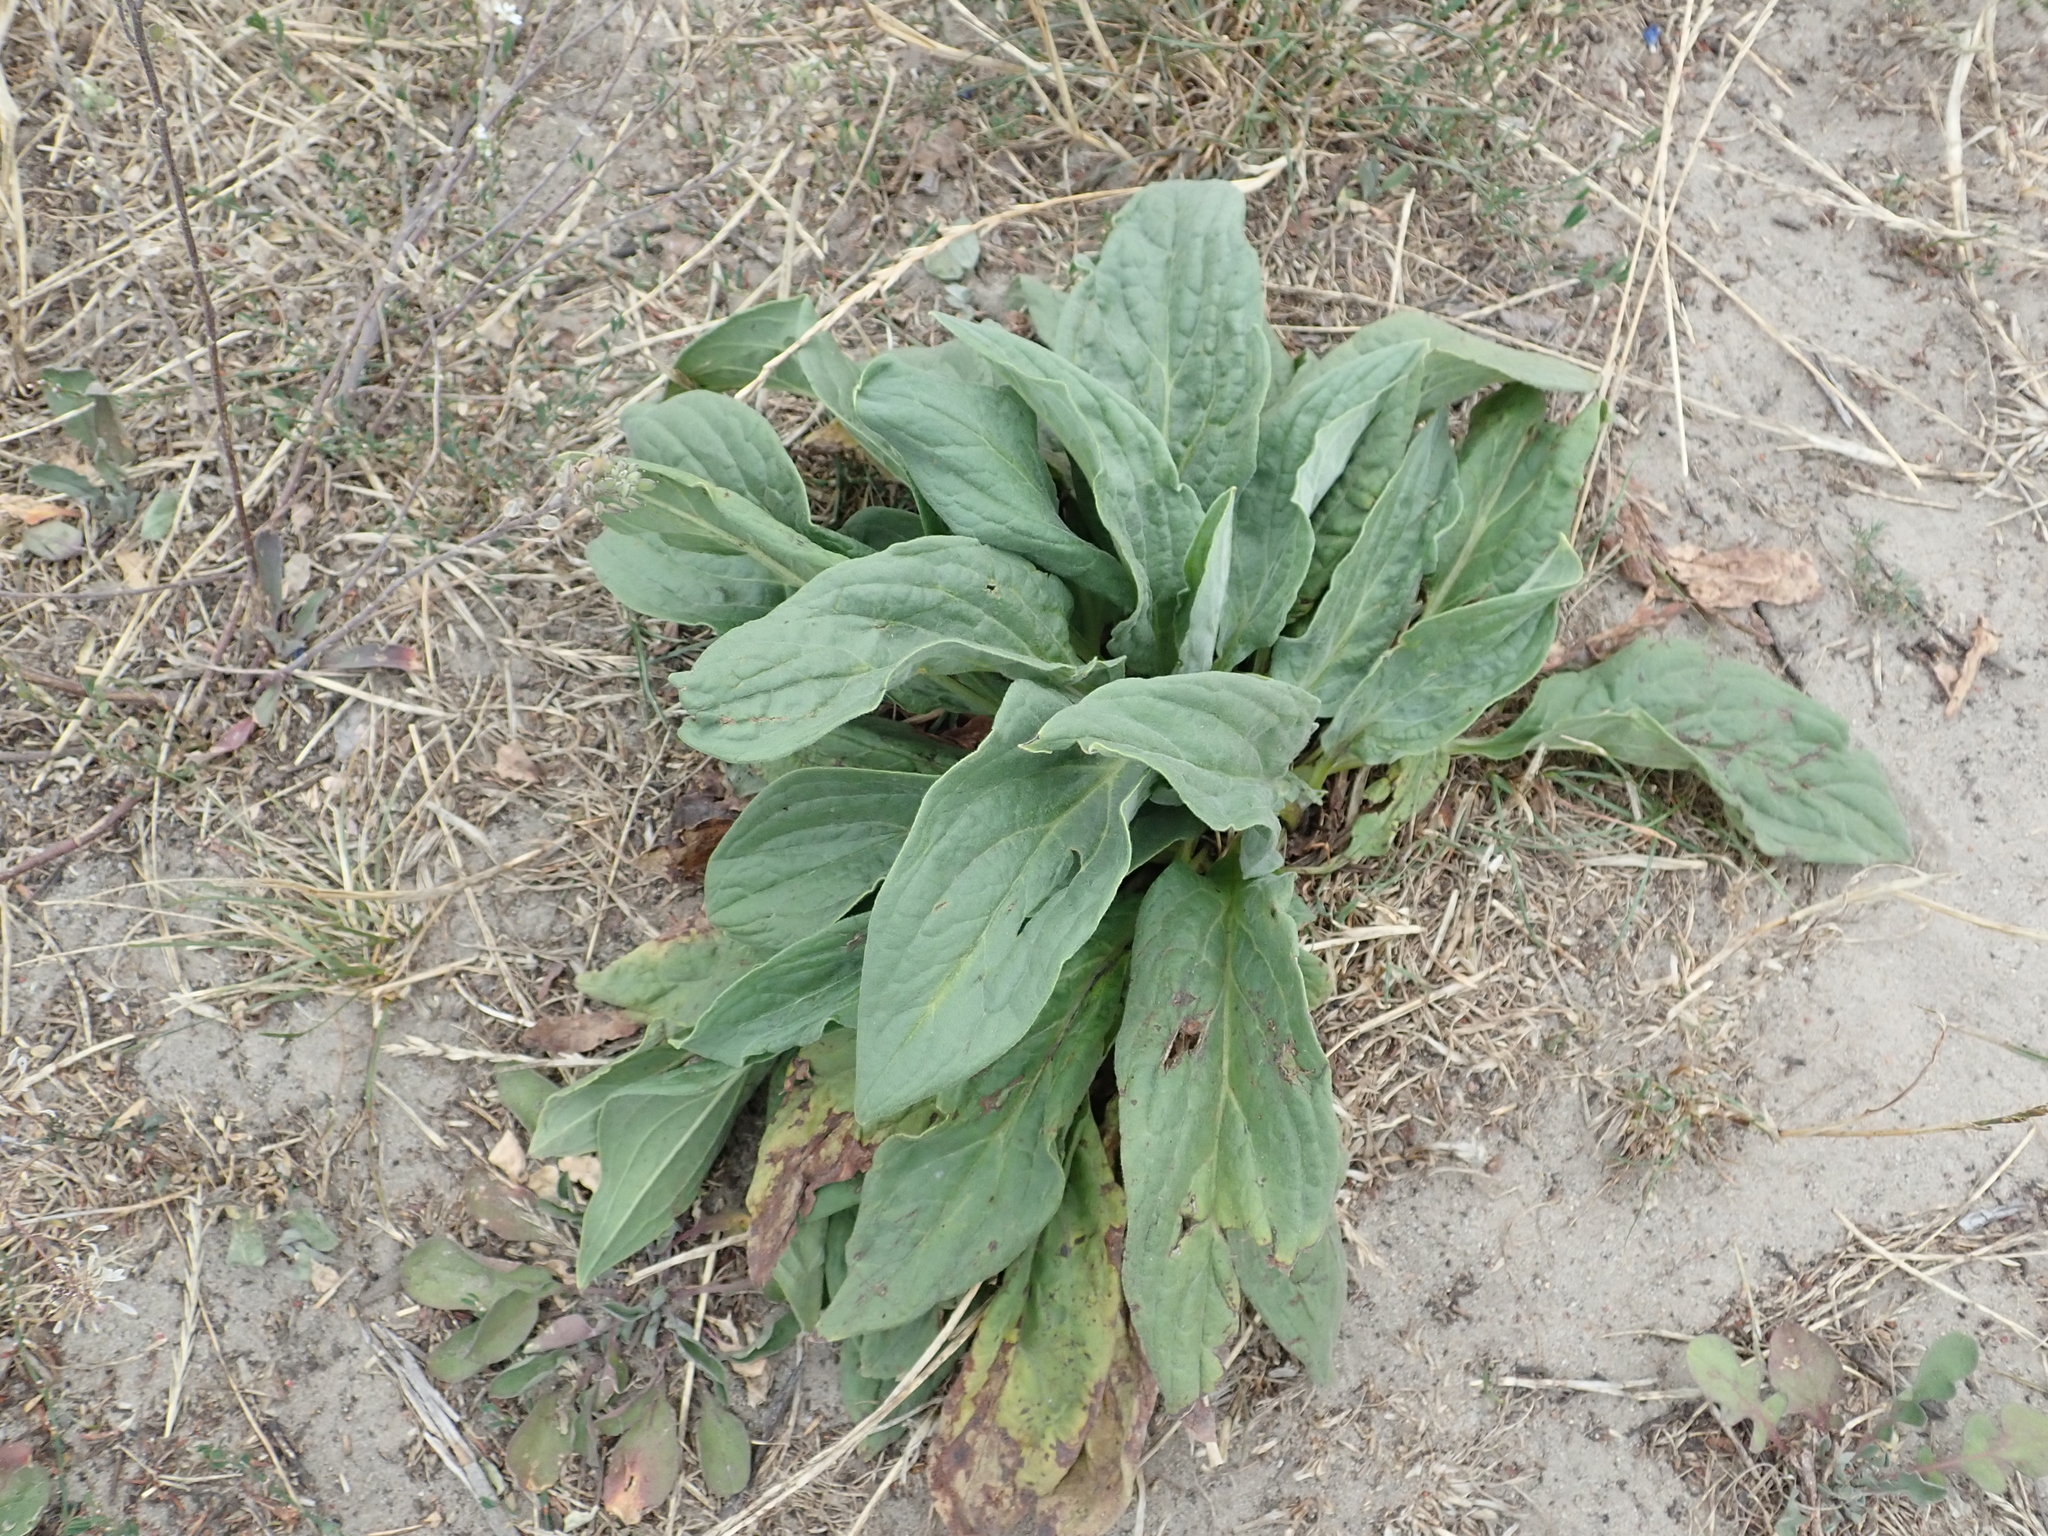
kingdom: Plantae
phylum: Tracheophyta
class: Magnoliopsida
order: Boraginales
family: Boraginaceae
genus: Cynoglossum
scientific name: Cynoglossum officinale
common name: Hound's-tongue
